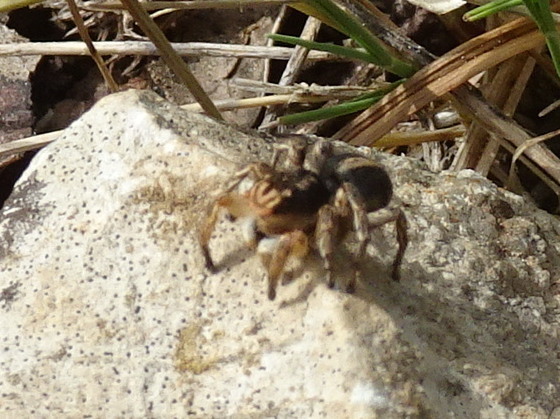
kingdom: Animalia
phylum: Arthropoda
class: Arachnida
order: Araneae
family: Salticidae
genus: Aelurillus
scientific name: Aelurillus v-insignitus
